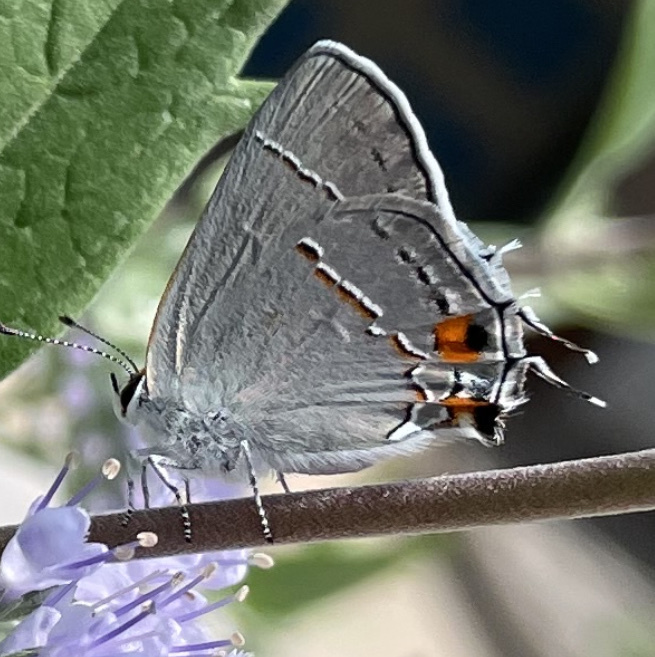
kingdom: Animalia
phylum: Arthropoda
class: Insecta
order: Lepidoptera
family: Lycaenidae
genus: Strymon
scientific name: Strymon melinus
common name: Gray hairstreak
